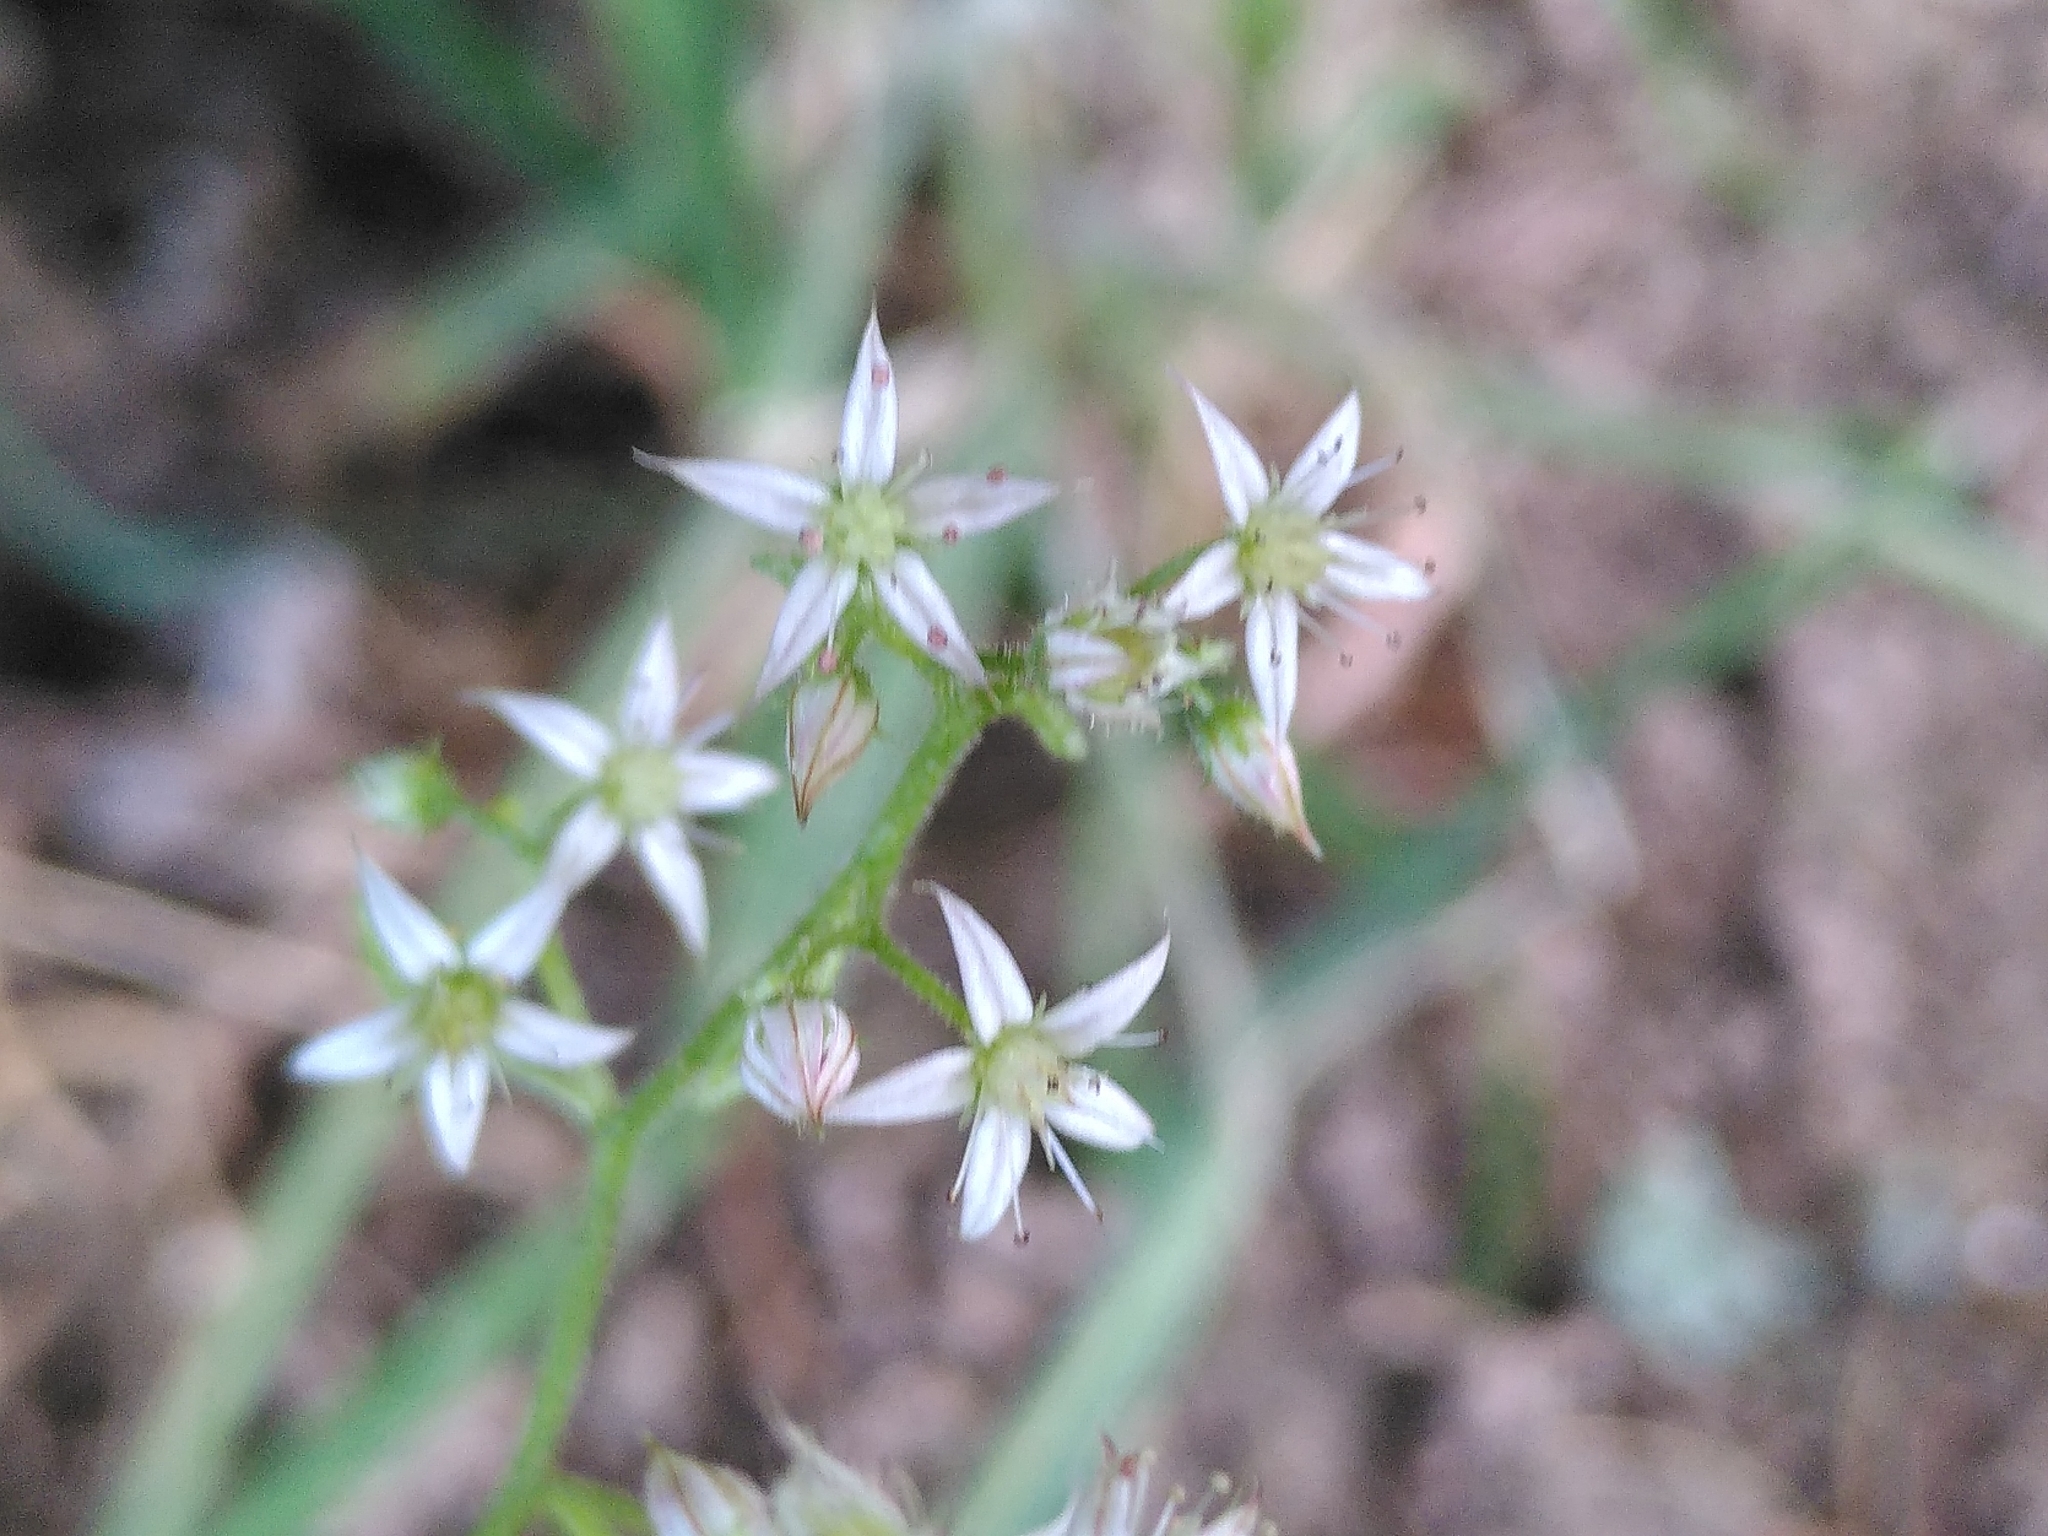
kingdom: Plantae
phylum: Tracheophyta
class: Magnoliopsida
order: Saxifragales
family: Crassulaceae
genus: Sedum
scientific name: Sedum cepaea
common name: Pink stonecrop
